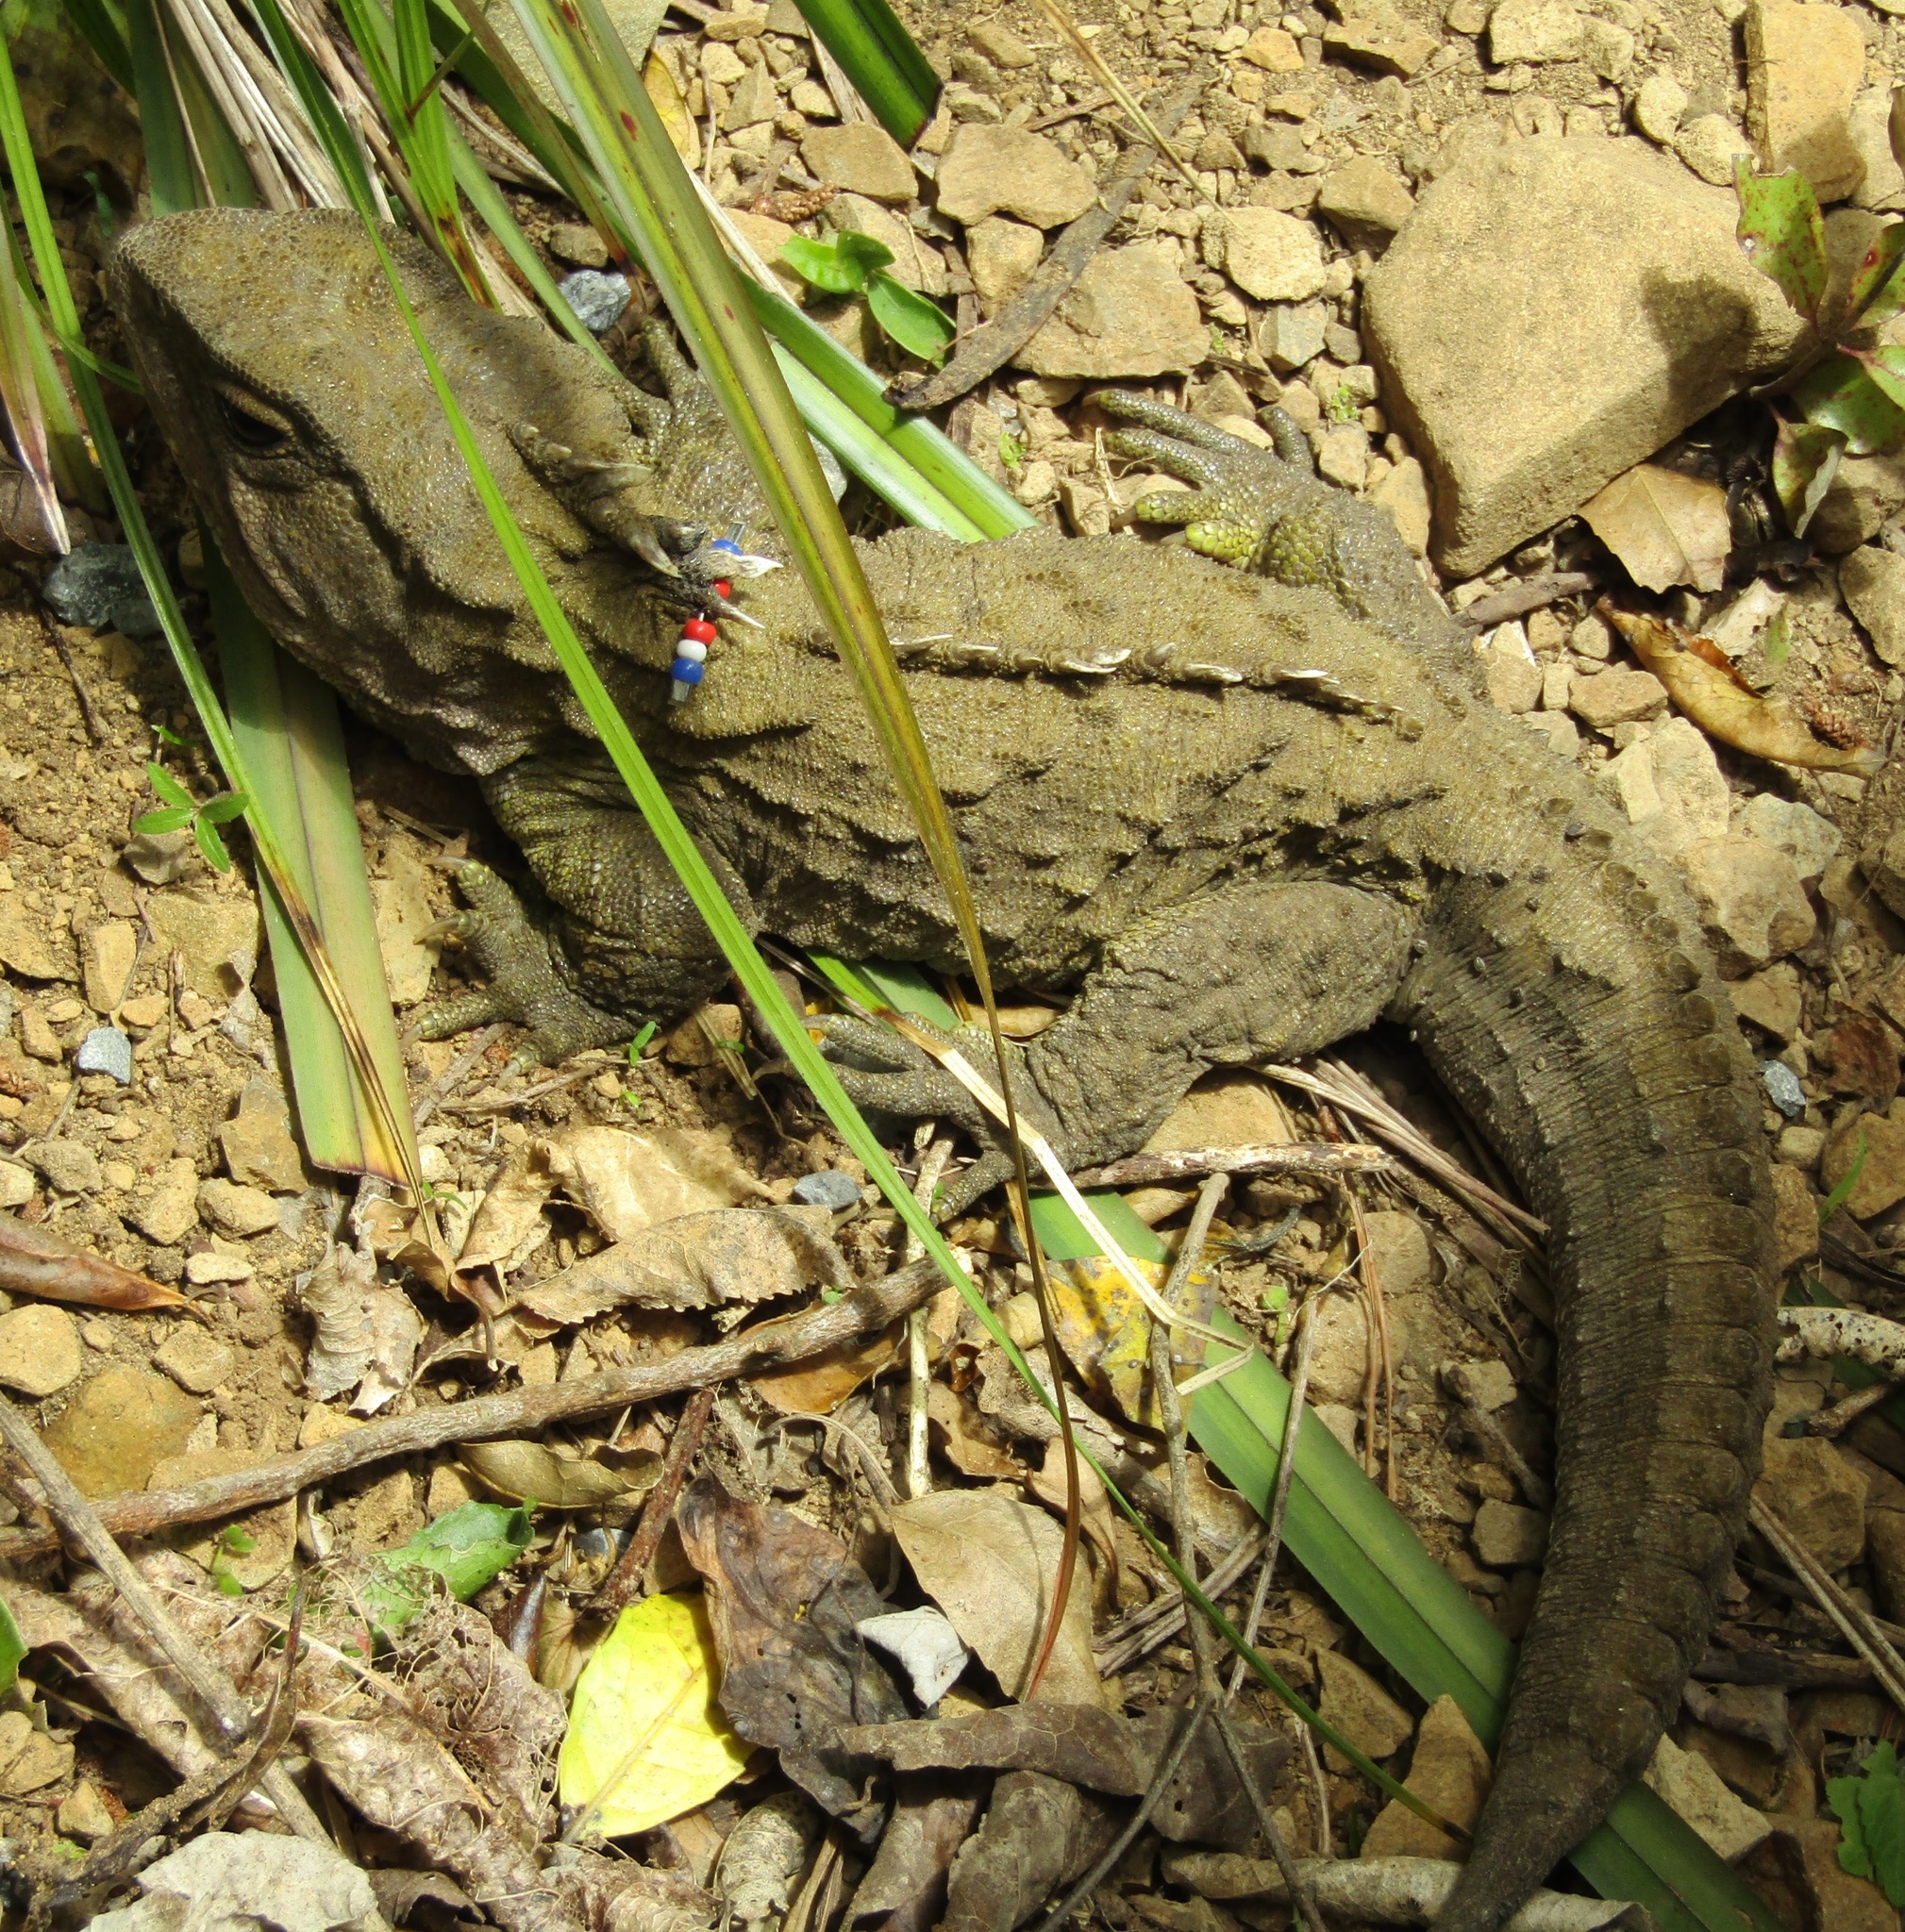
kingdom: Animalia
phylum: Chordata
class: Sphenodontia
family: Sphenodontidae
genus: Sphenodon
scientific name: Sphenodon punctatus
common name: Tuatara
